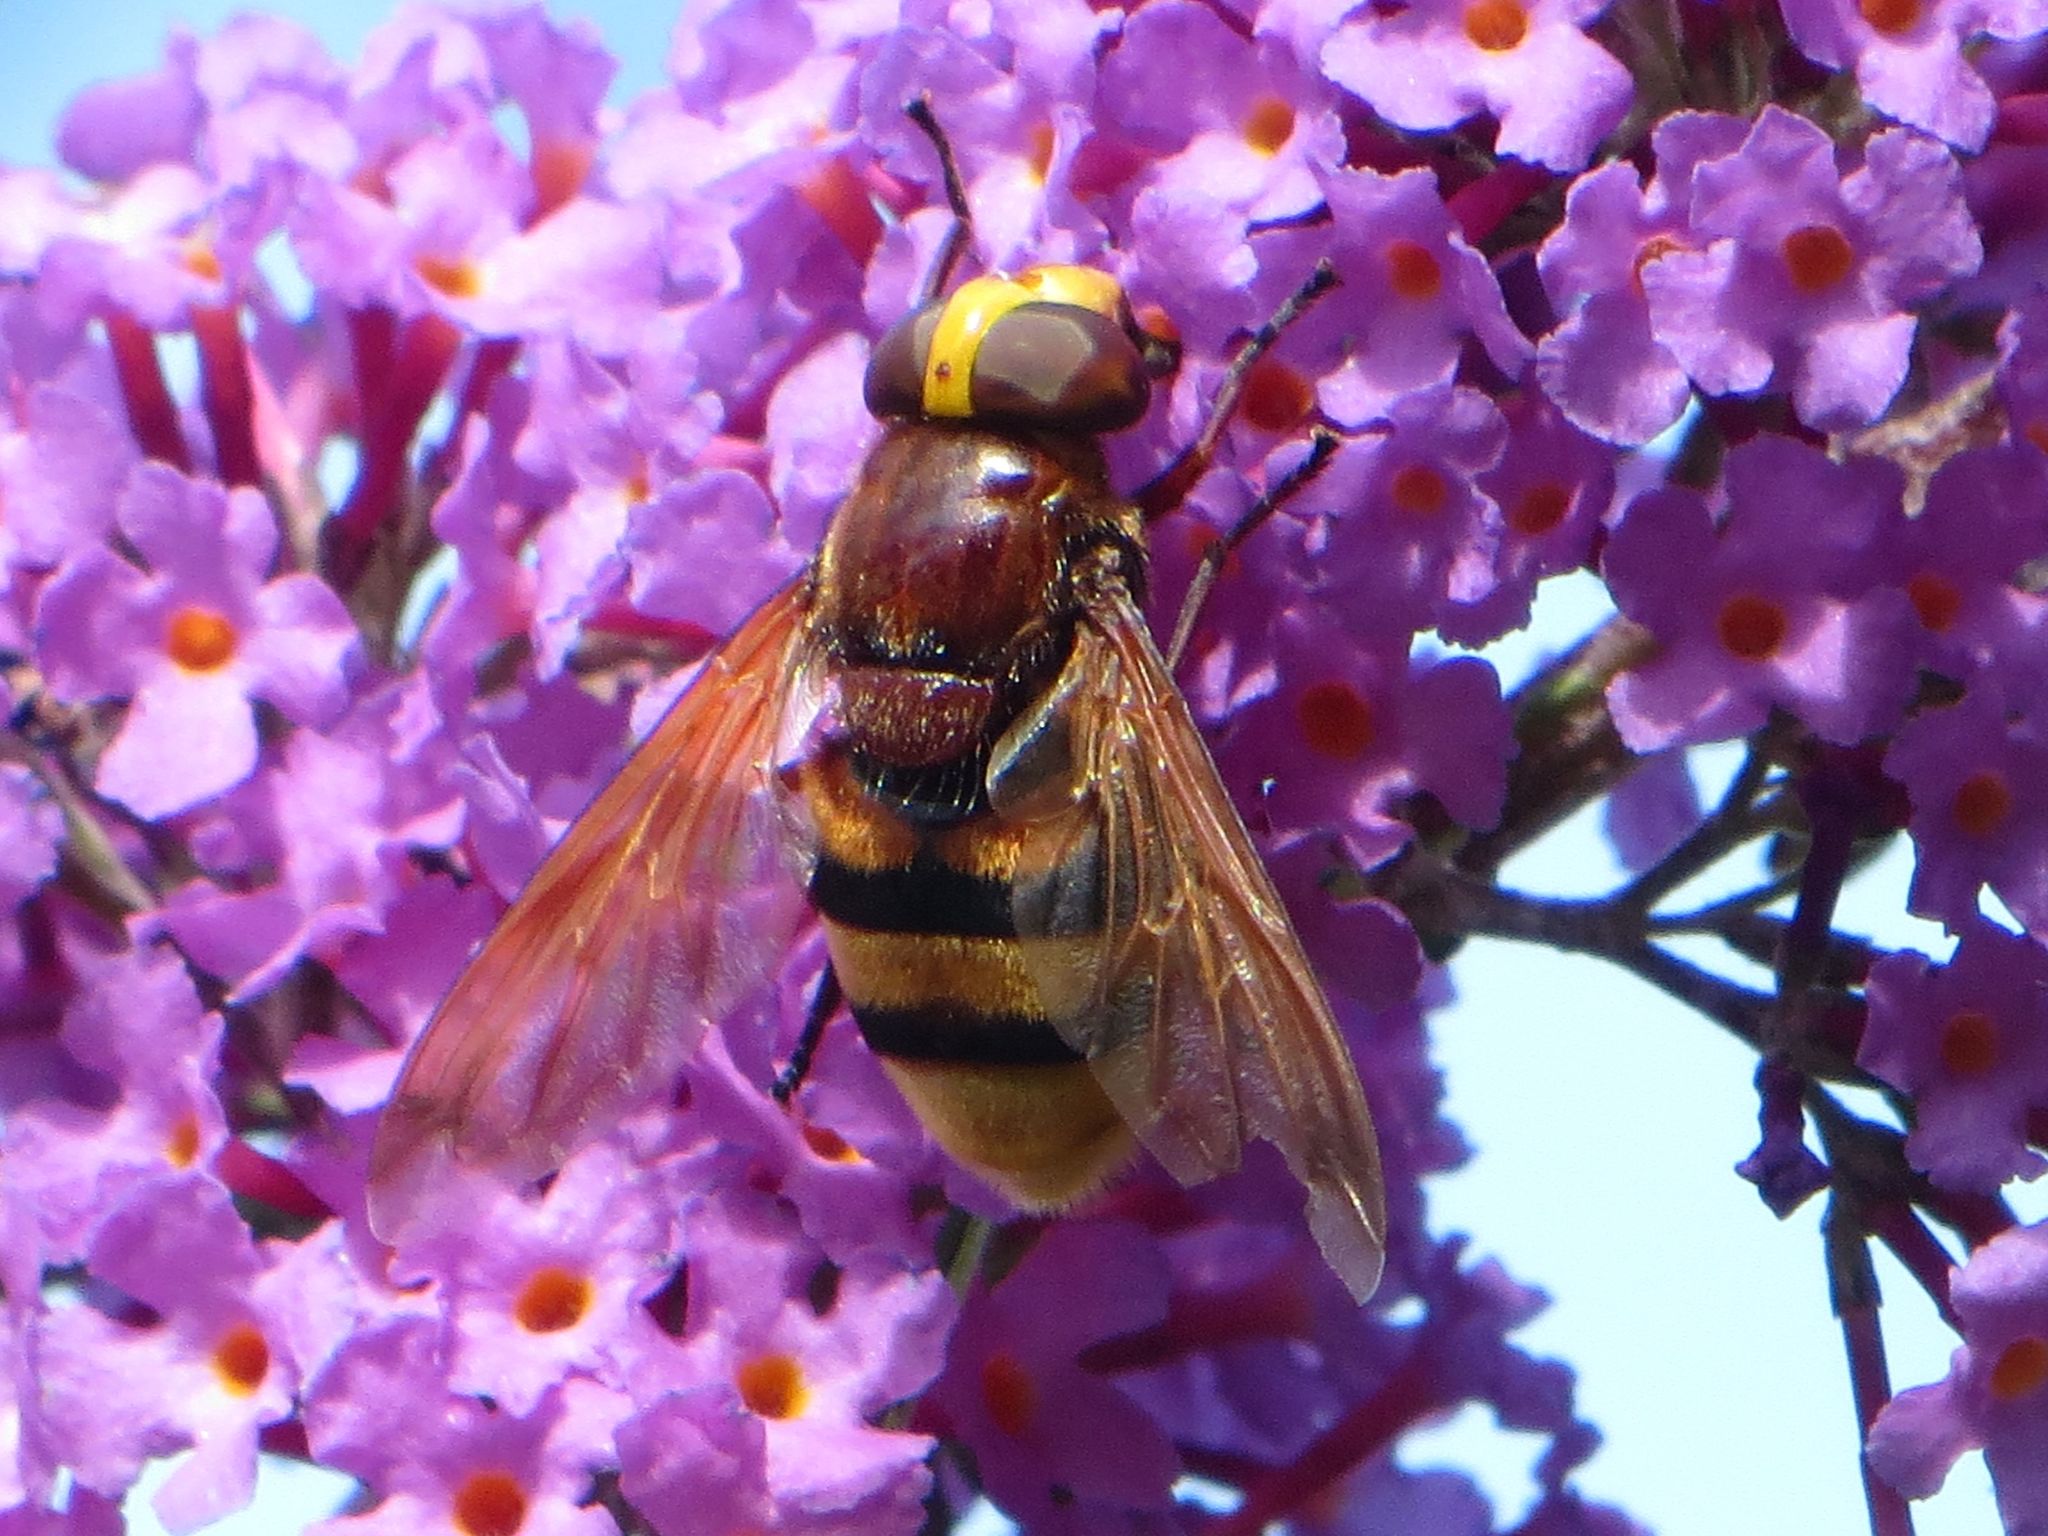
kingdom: Animalia
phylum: Arthropoda
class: Insecta
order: Diptera
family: Syrphidae
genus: Volucella
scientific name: Volucella zonaria
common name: Hornet hoverfly
